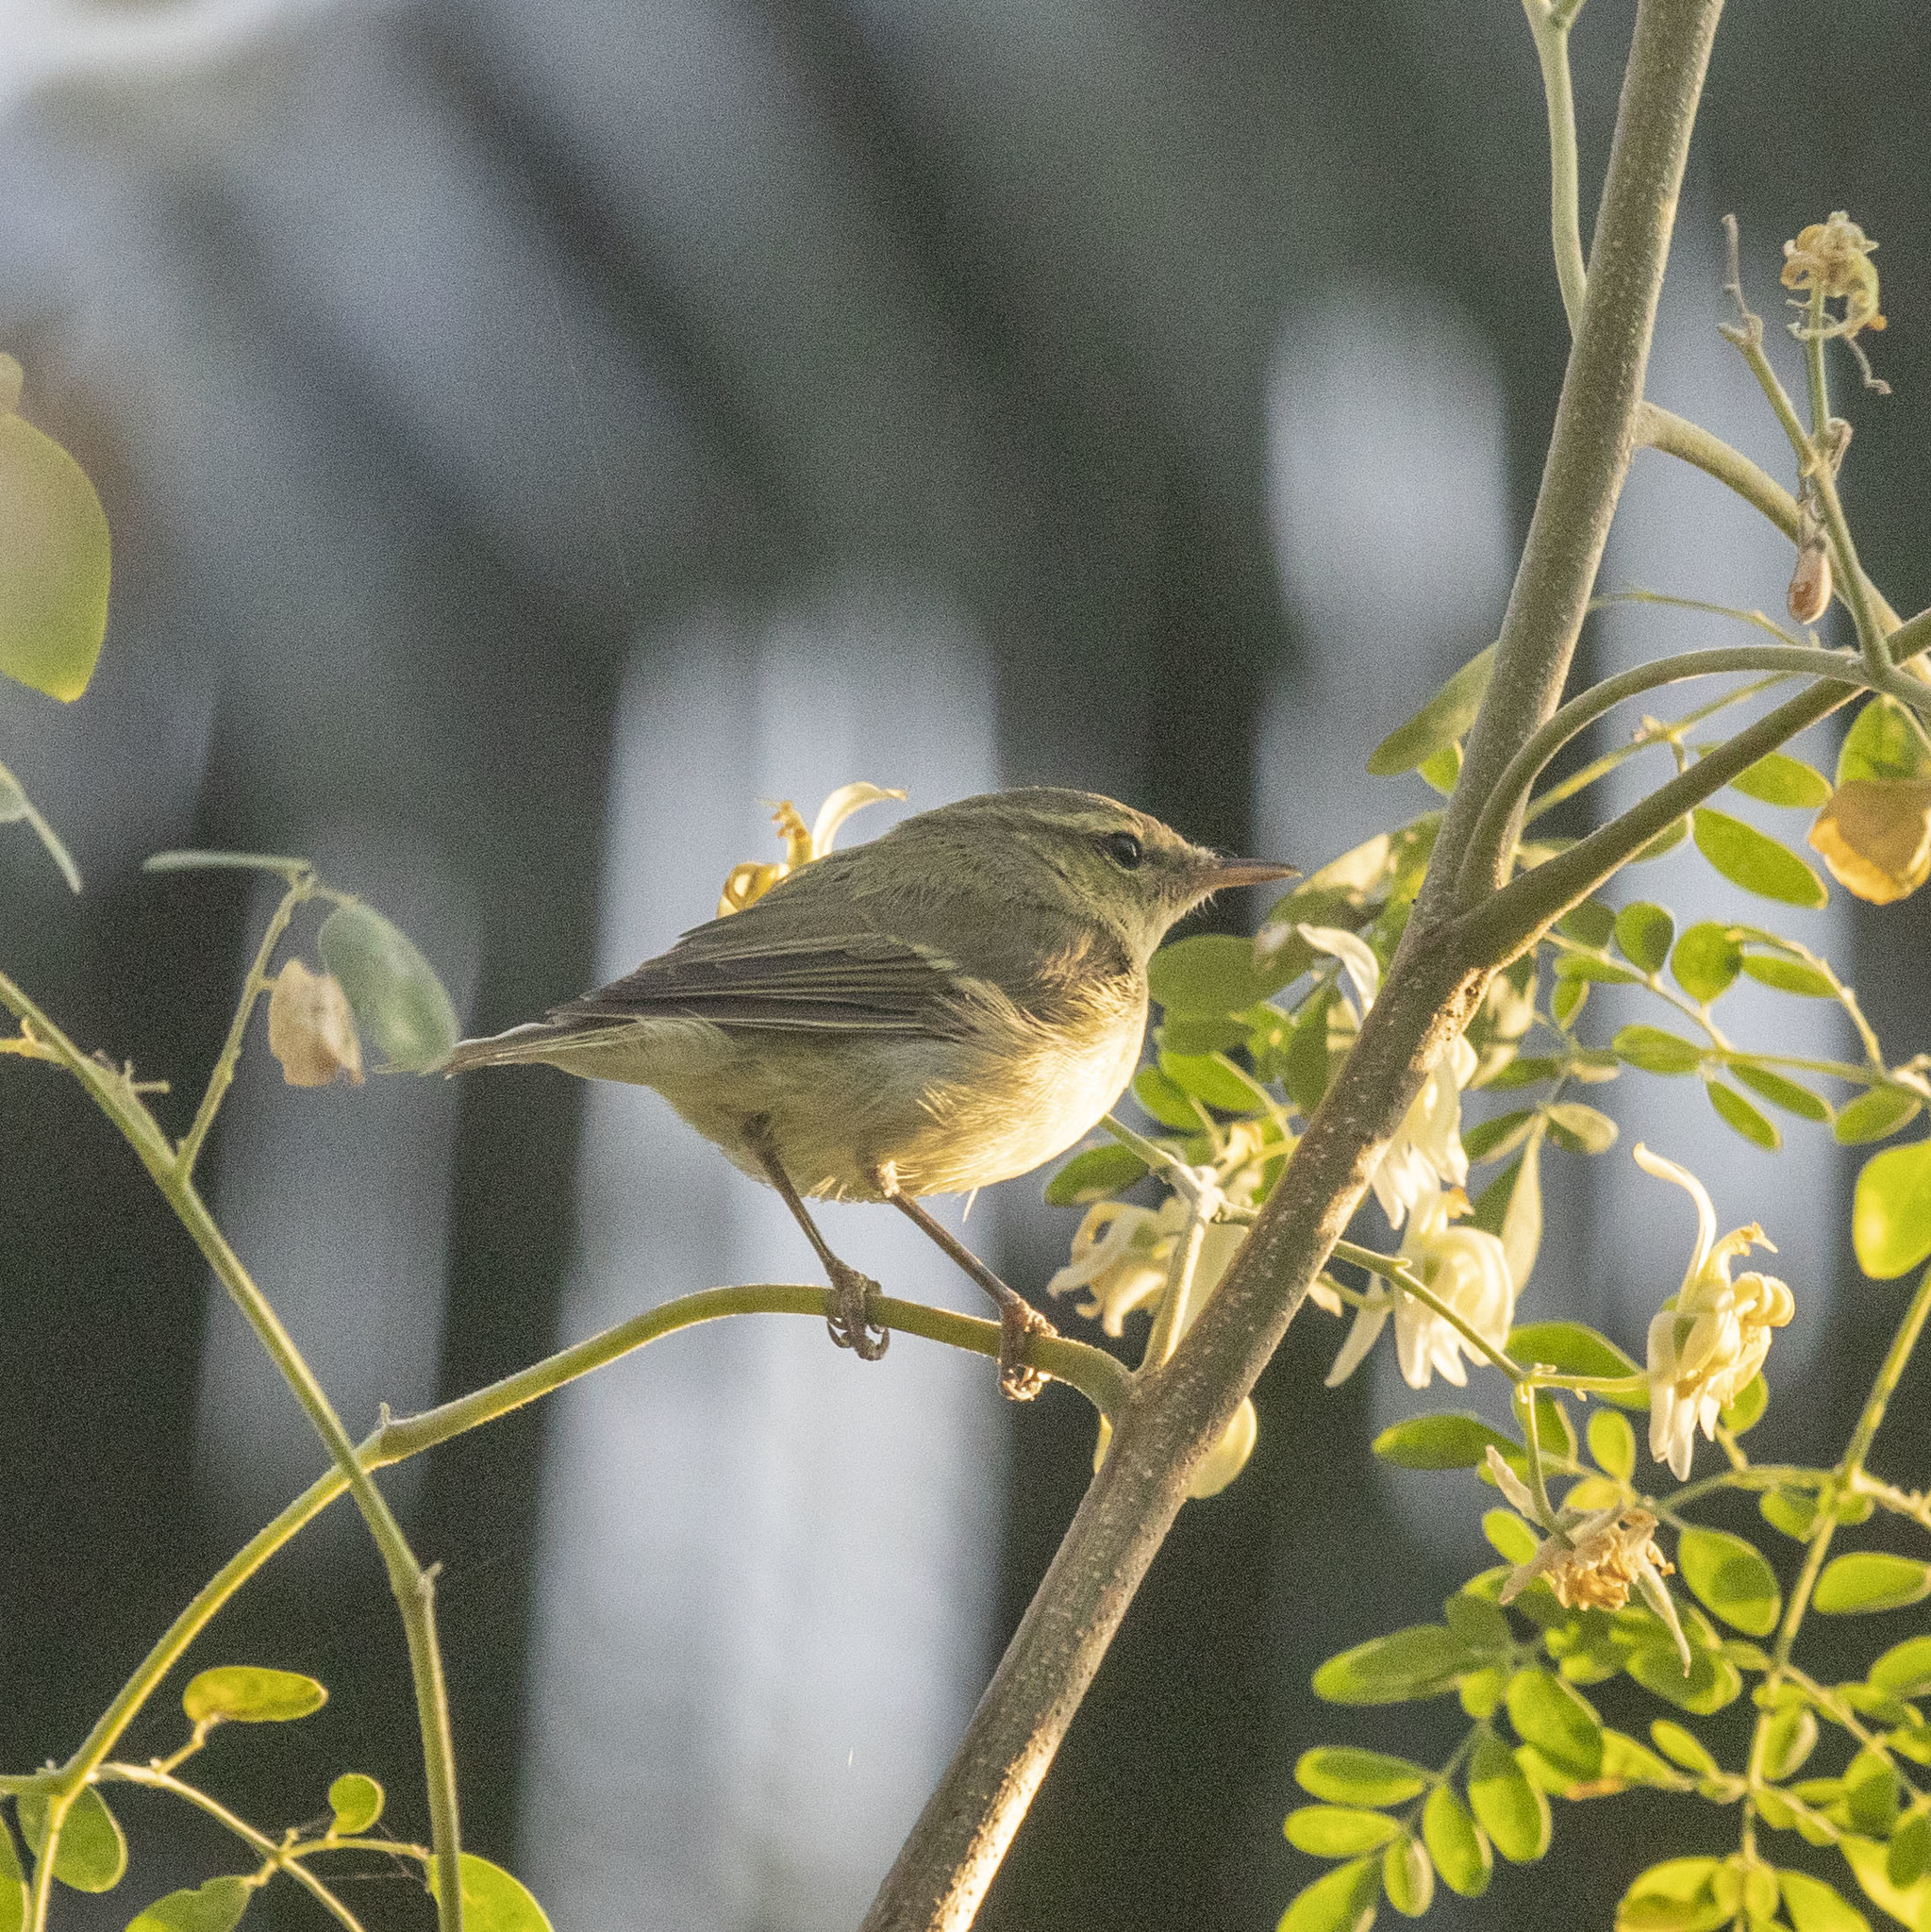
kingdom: Animalia
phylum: Chordata
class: Aves
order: Passeriformes
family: Phylloscopidae
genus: Phylloscopus
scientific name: Phylloscopus trochiloides
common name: Greenish warbler
